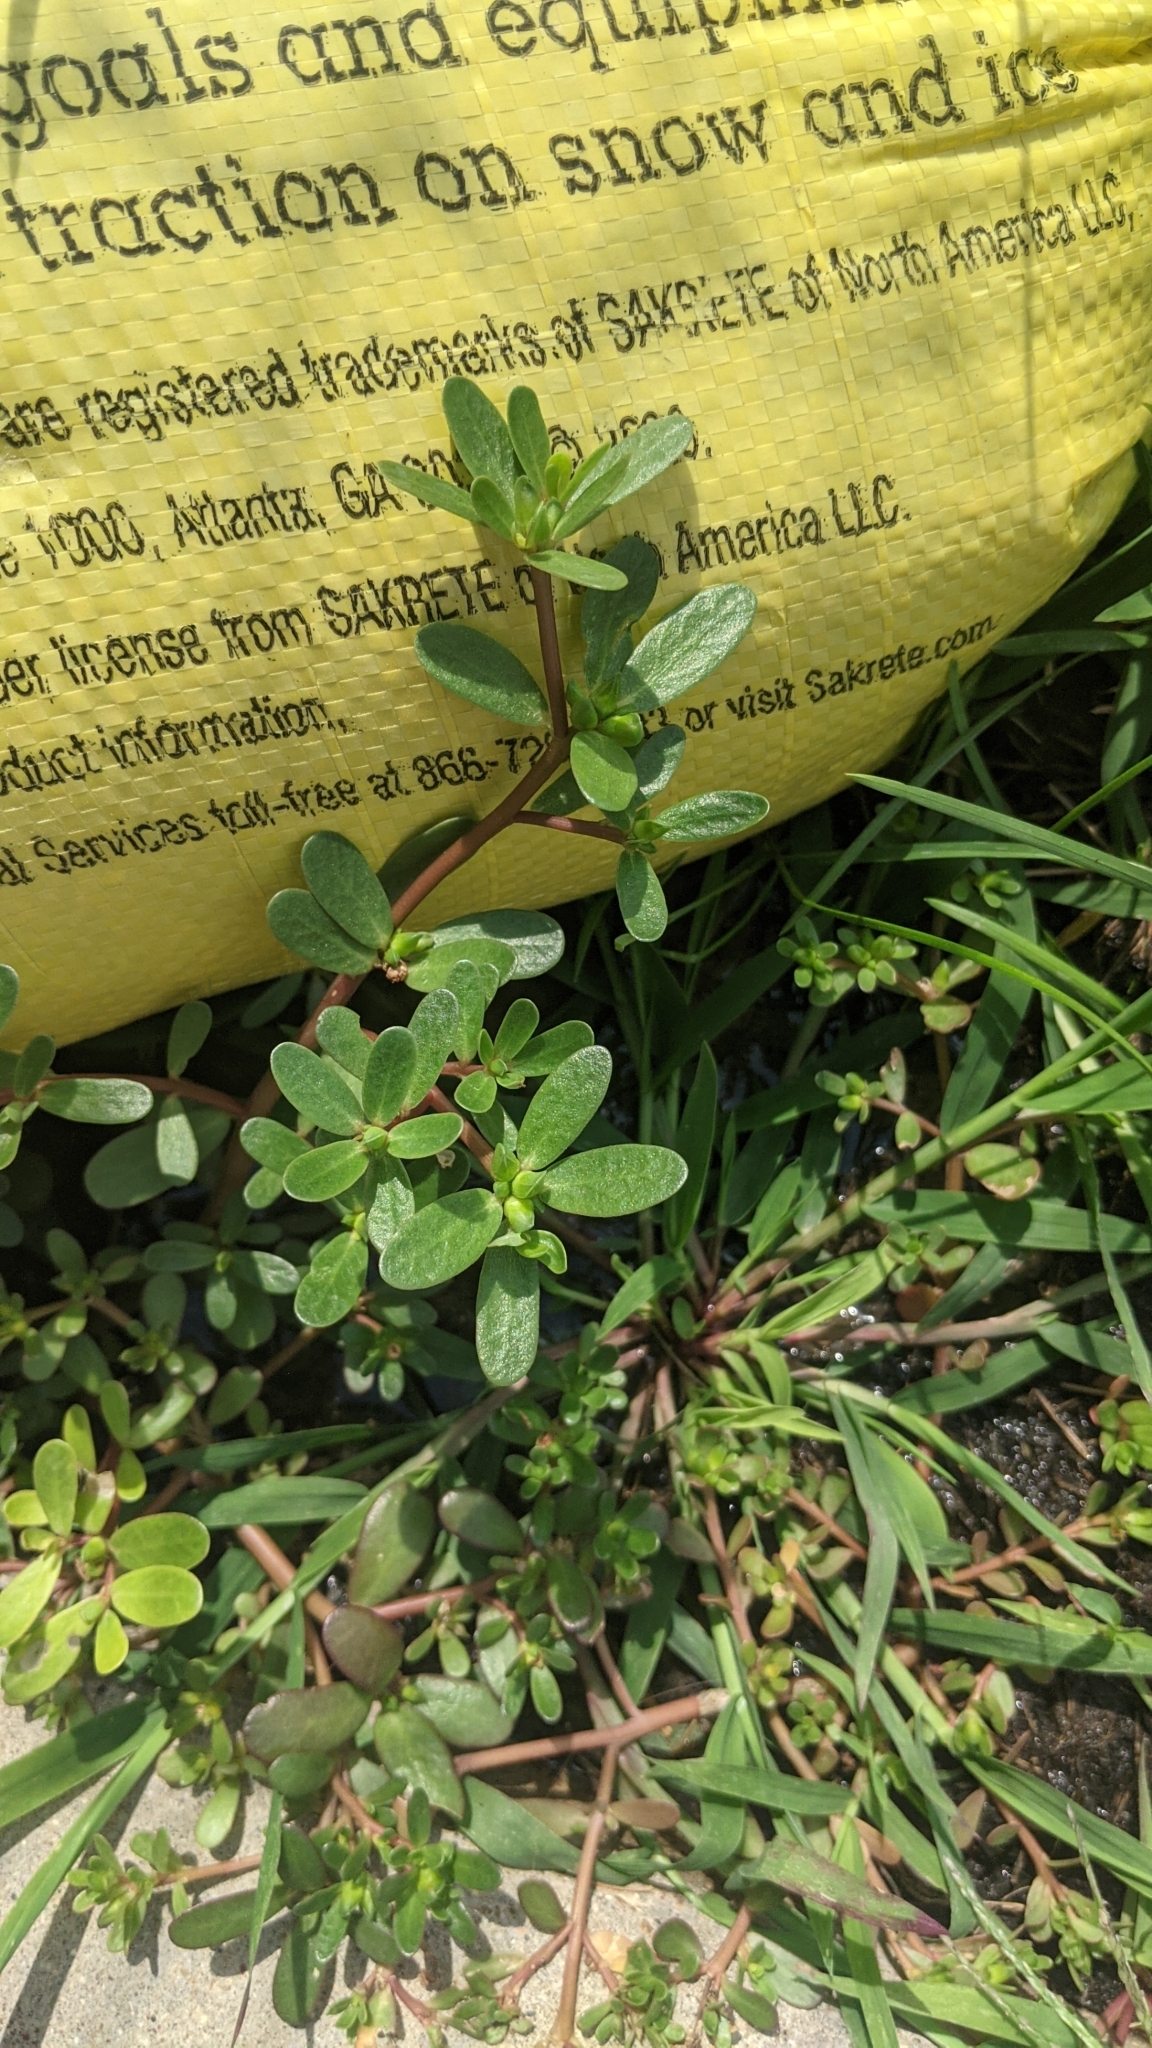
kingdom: Plantae
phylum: Tracheophyta
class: Magnoliopsida
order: Caryophyllales
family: Portulacaceae
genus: Portulaca
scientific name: Portulaca oleracea
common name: Common purslane
